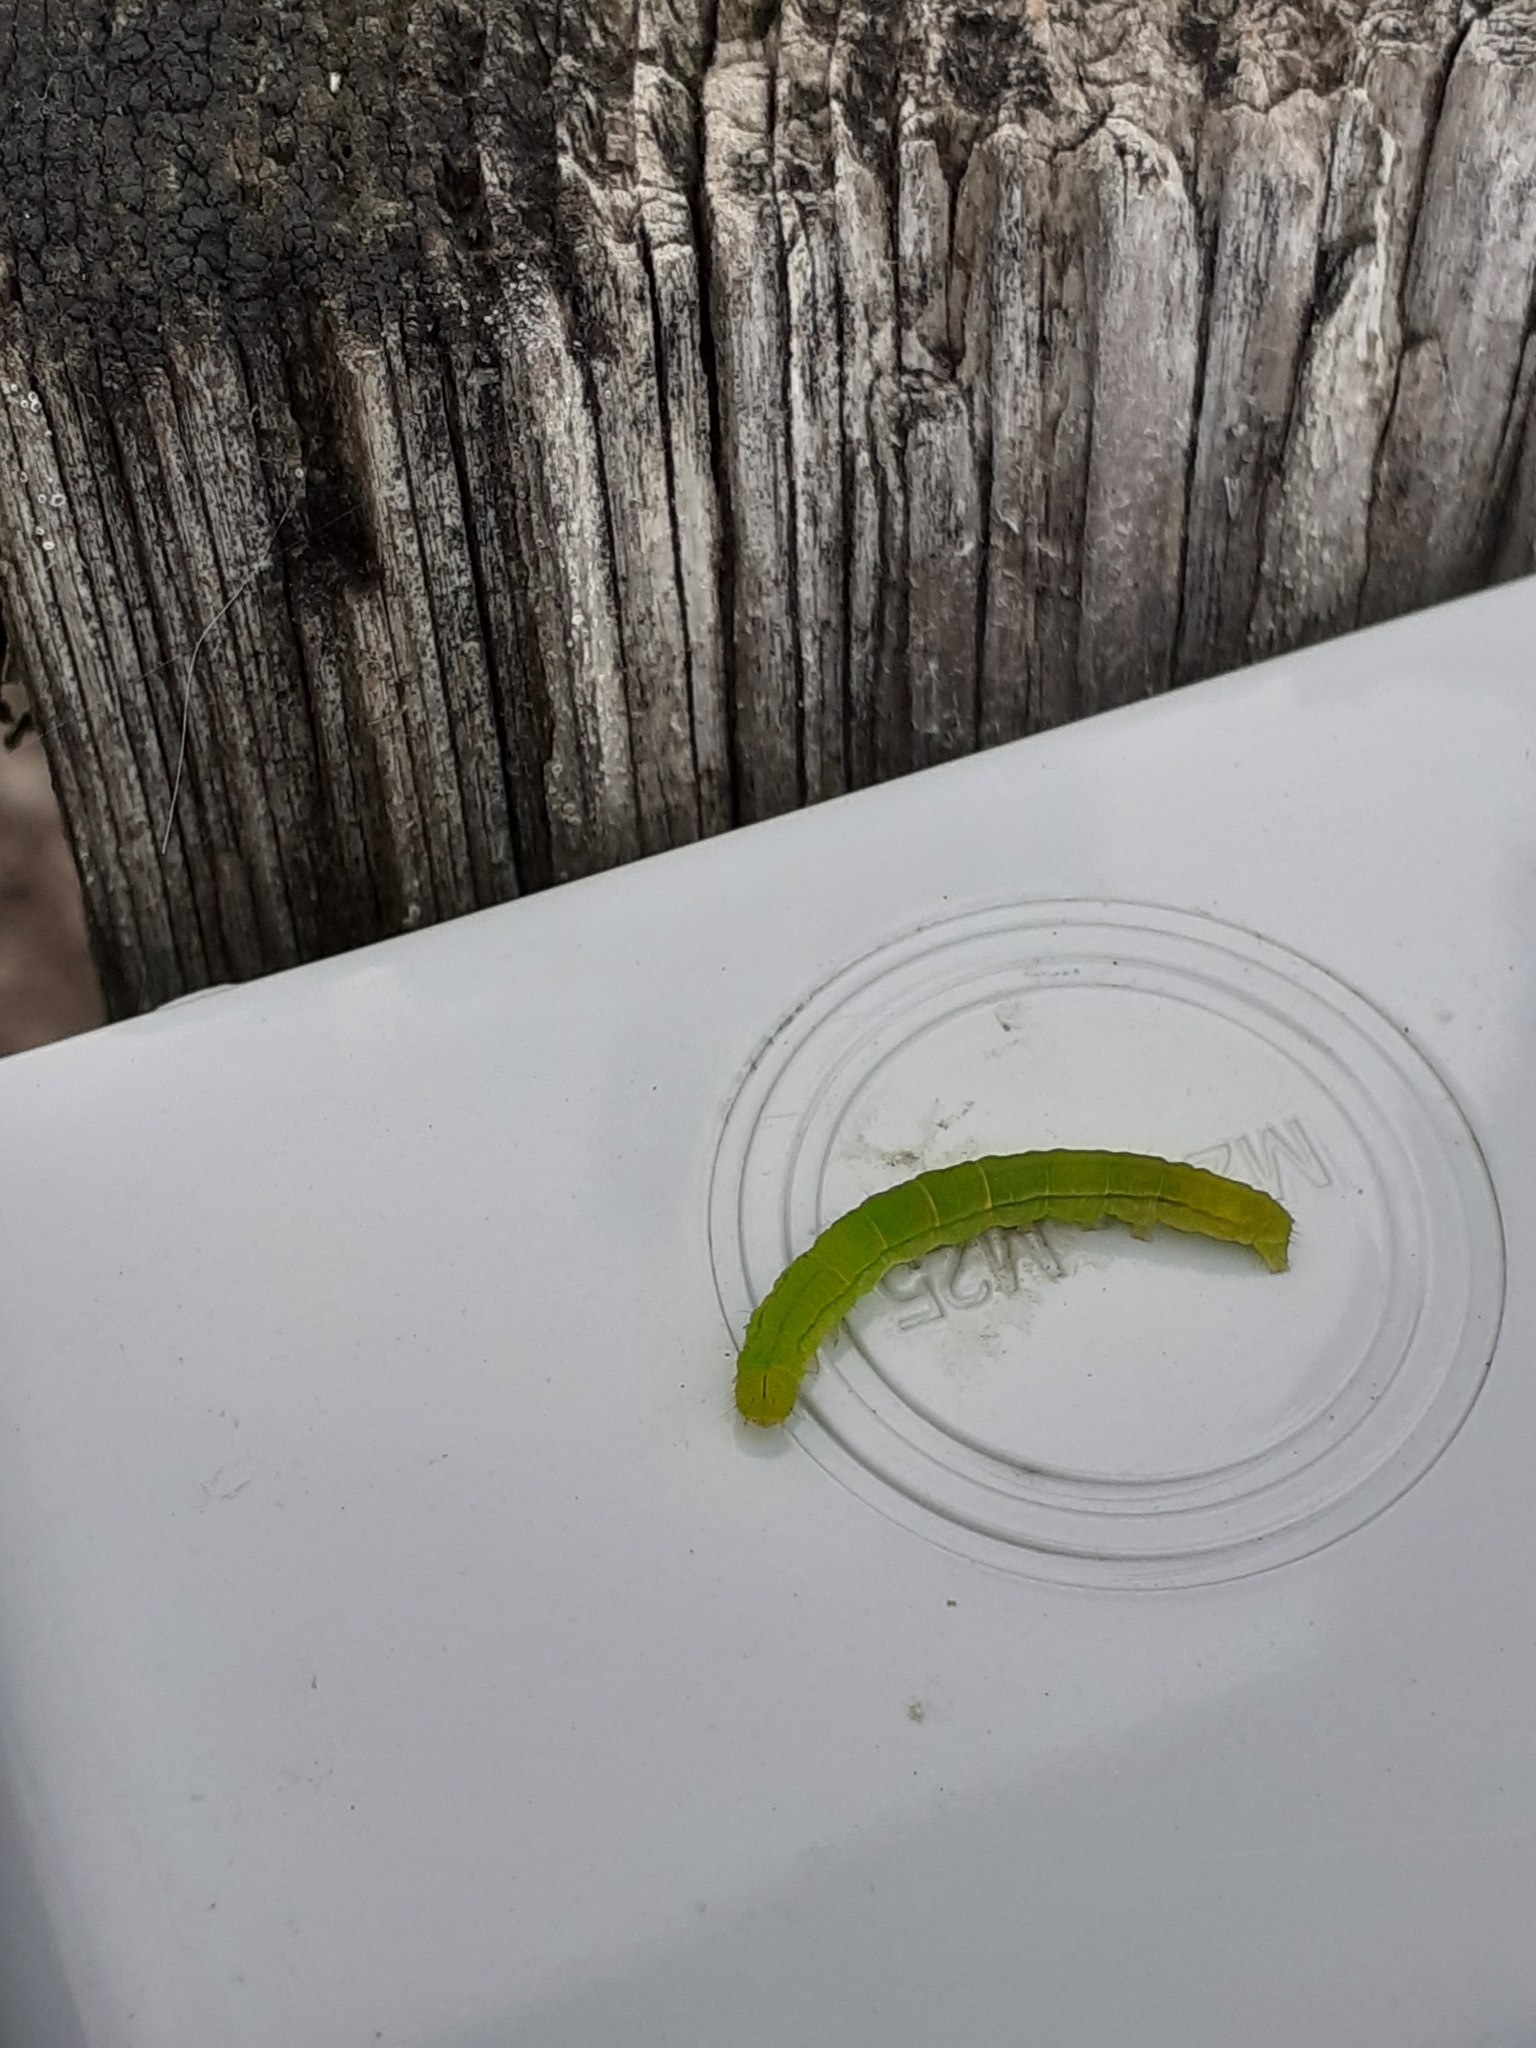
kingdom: Animalia
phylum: Arthropoda
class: Insecta
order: Lepidoptera
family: Erebidae
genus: Scoliopteryx
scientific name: Scoliopteryx libatrix
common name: Herald
